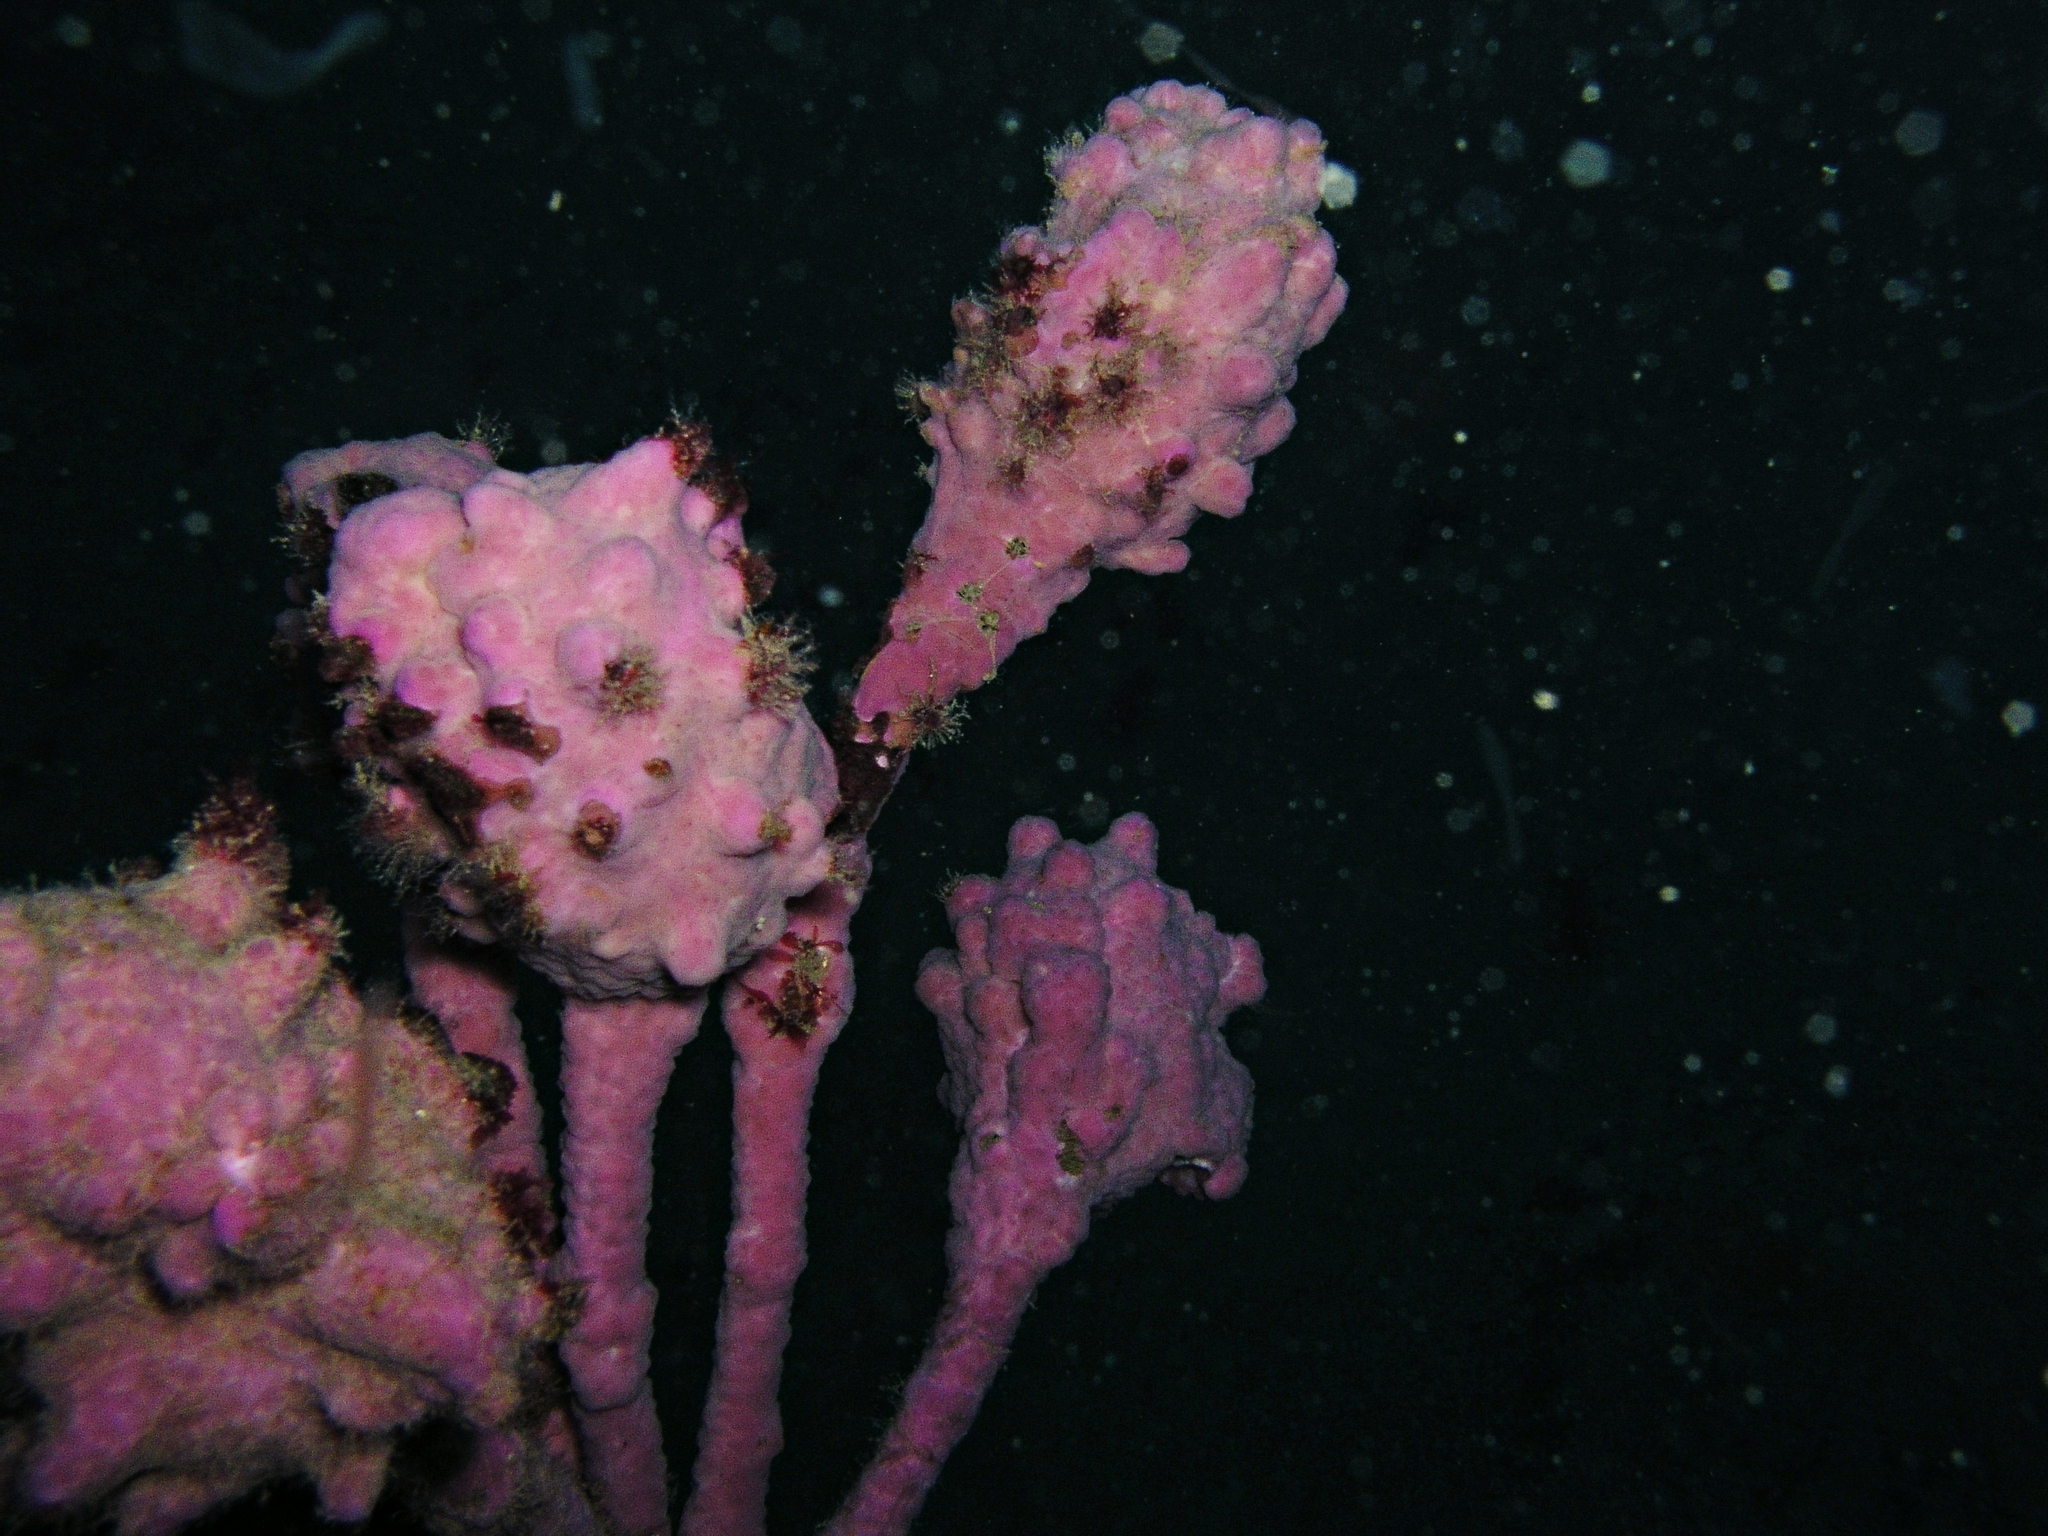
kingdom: Animalia
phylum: Chordata
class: Ascidiacea
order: Stolidobranchia
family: Pyuridae
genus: Pyura
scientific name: Pyura spinifera
